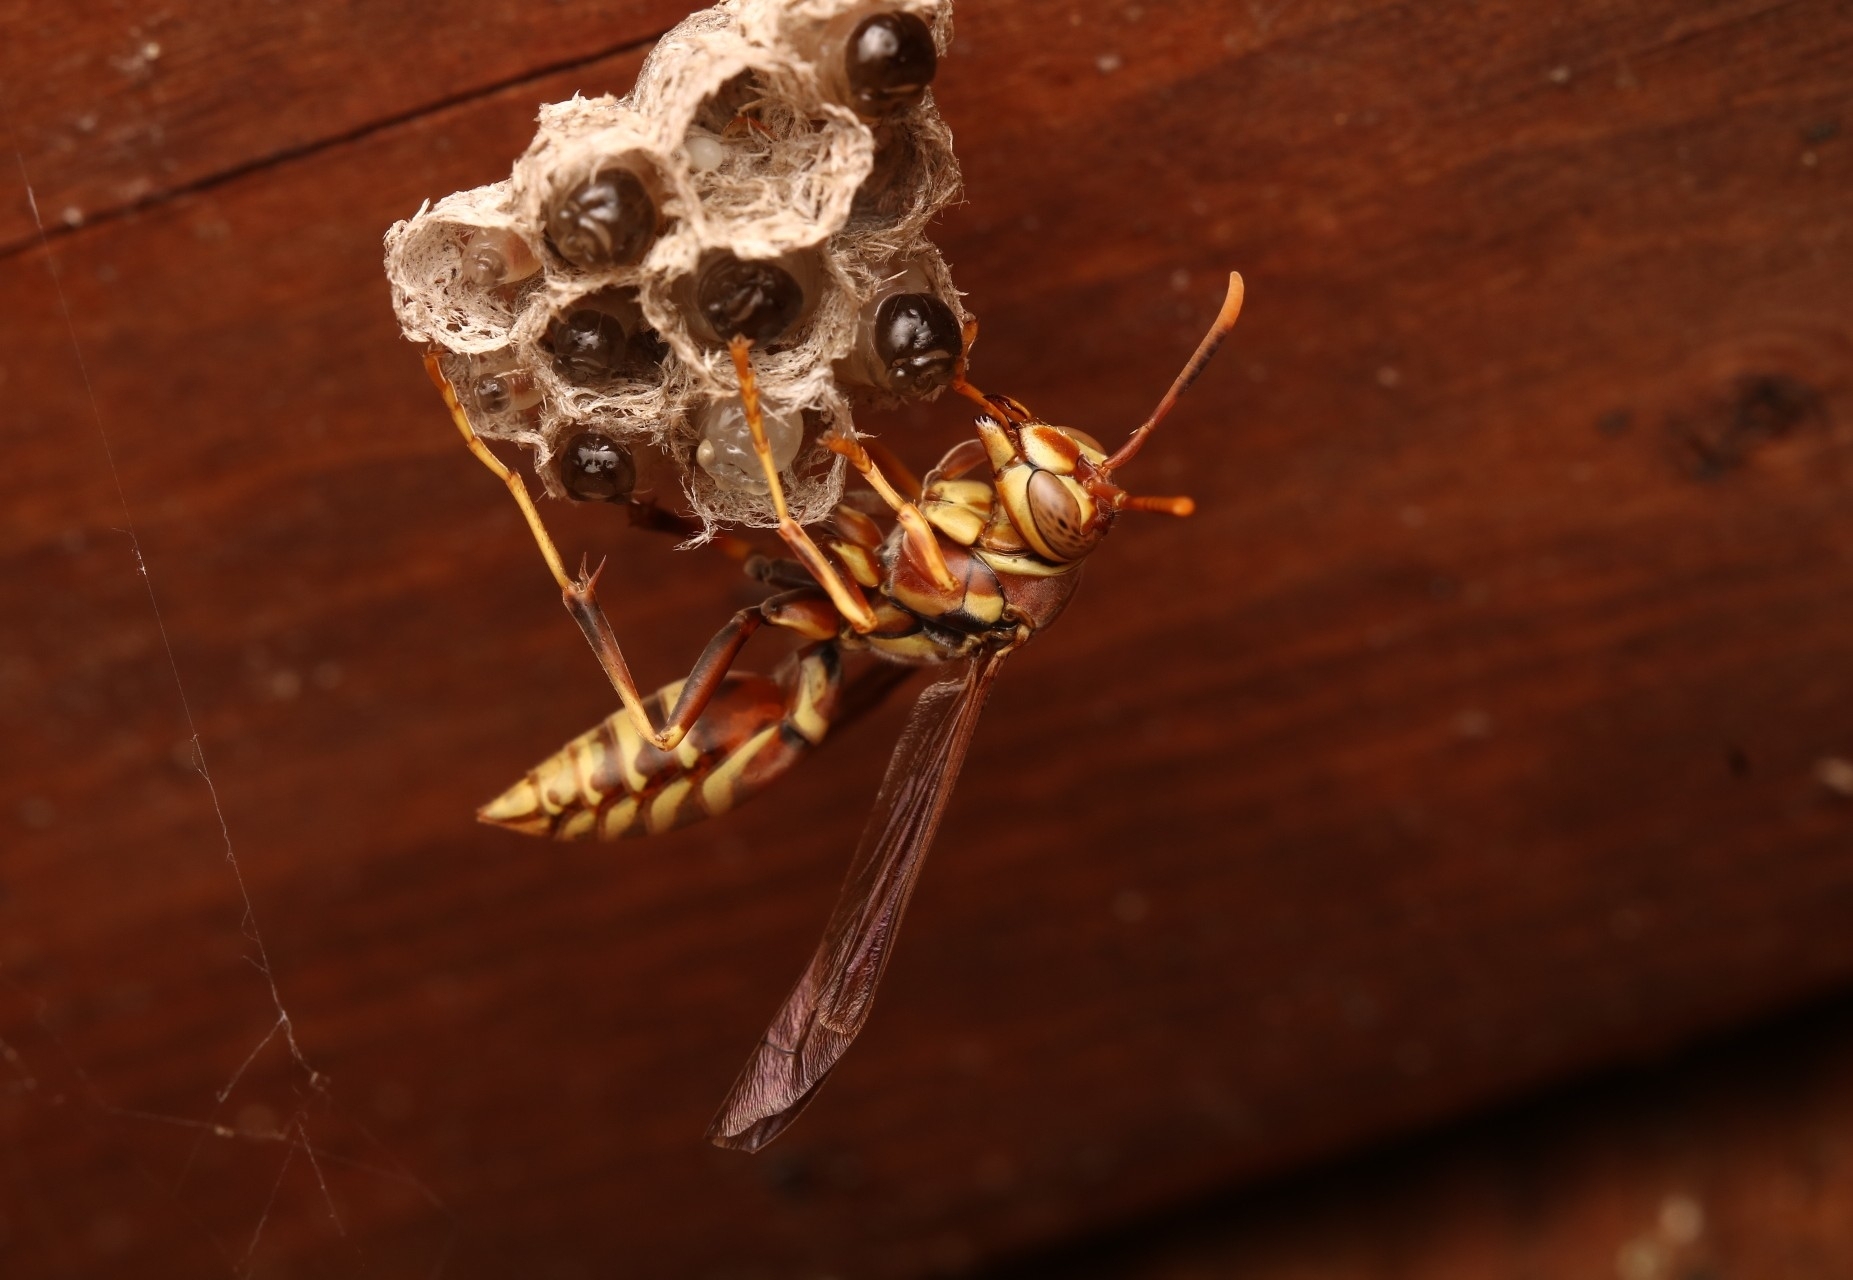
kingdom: Animalia
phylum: Arthropoda
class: Insecta
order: Hymenoptera
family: Eumenidae
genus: Polistes
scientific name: Polistes exclamans
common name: Paper wasp
